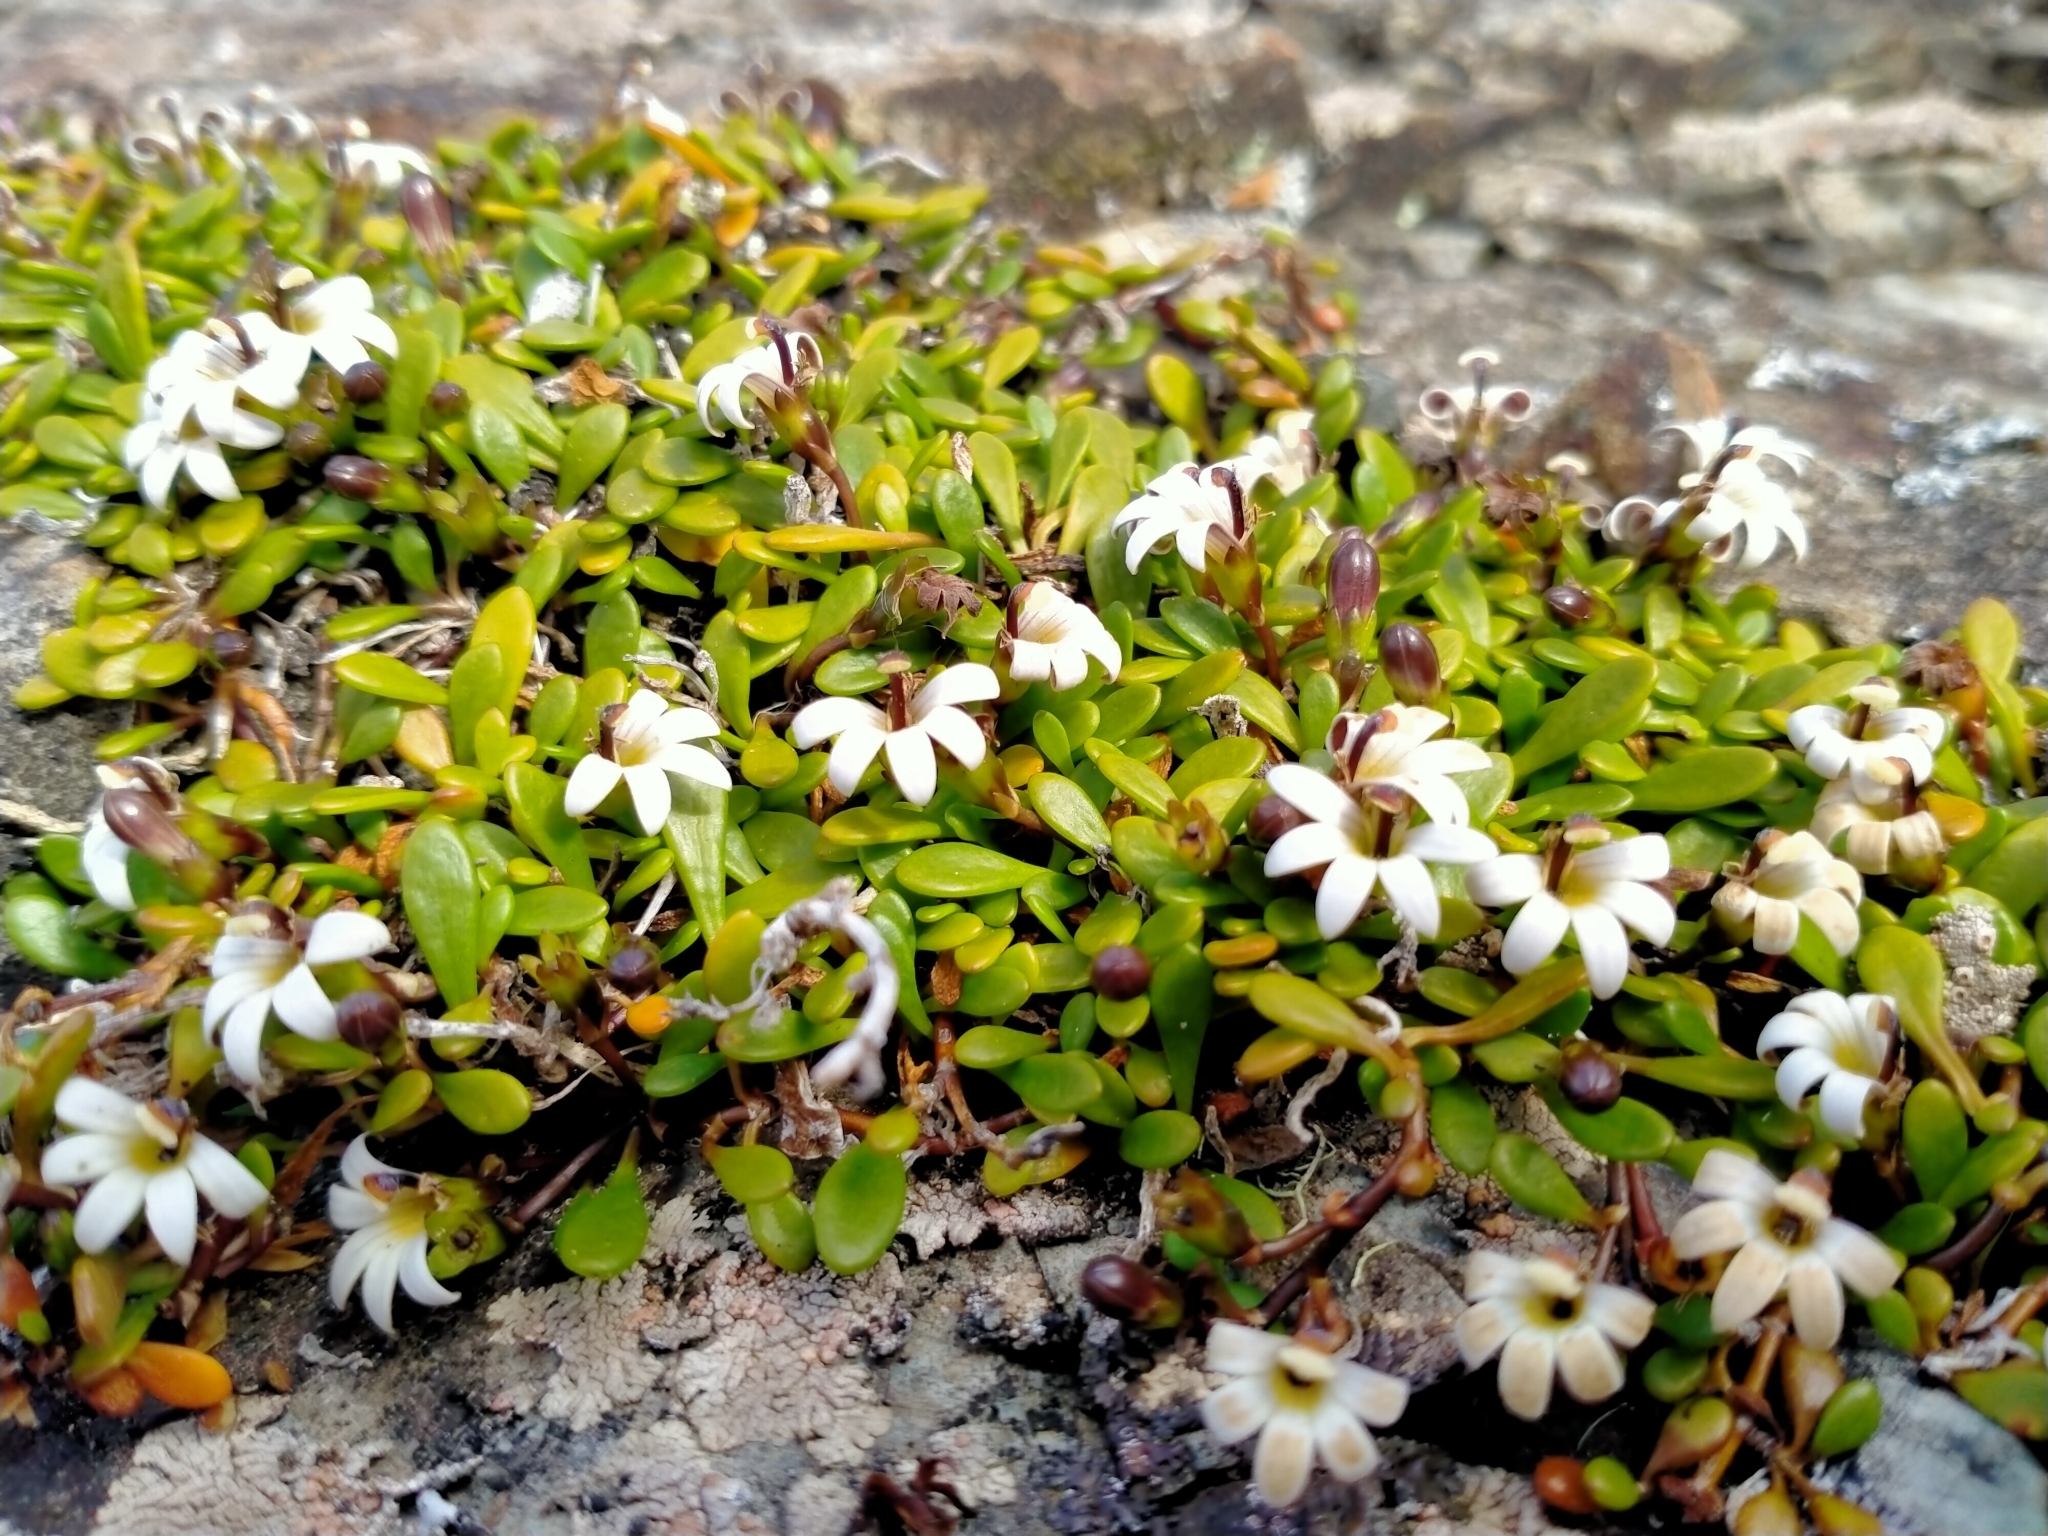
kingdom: Plantae
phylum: Tracheophyta
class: Magnoliopsida
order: Asterales
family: Goodeniaceae
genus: Goodenia
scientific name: Goodenia radicans
